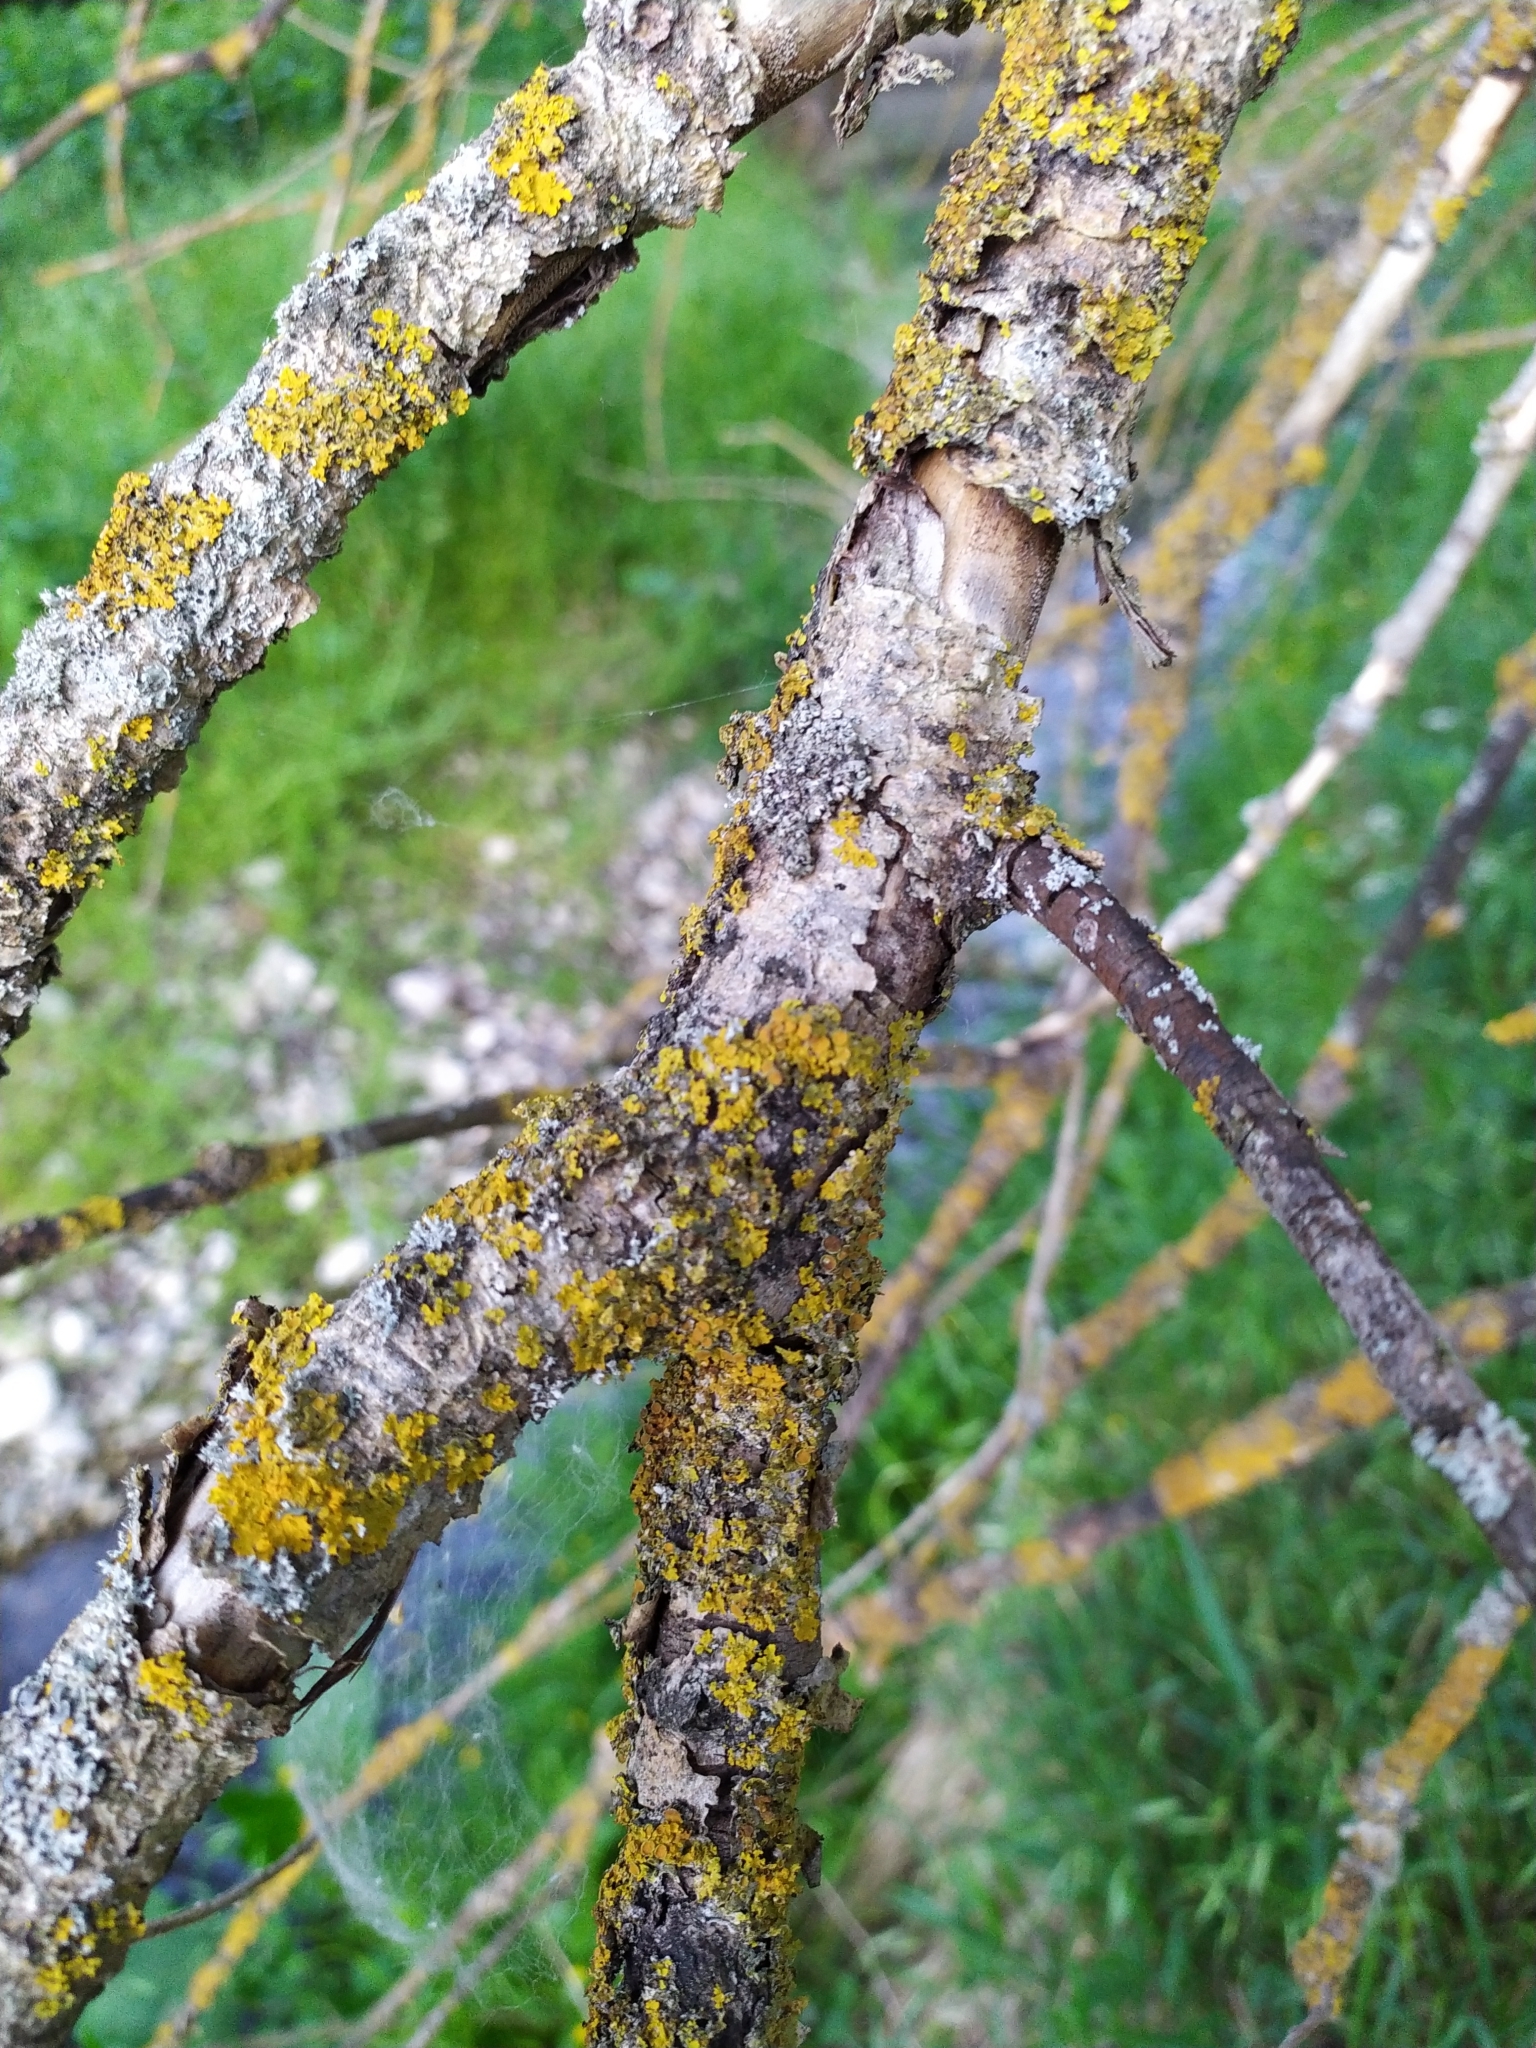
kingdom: Fungi
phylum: Ascomycota
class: Lecanoromycetes
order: Teloschistales
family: Teloschistaceae
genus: Xanthoria
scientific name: Xanthoria parietina
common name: Common orange lichen
